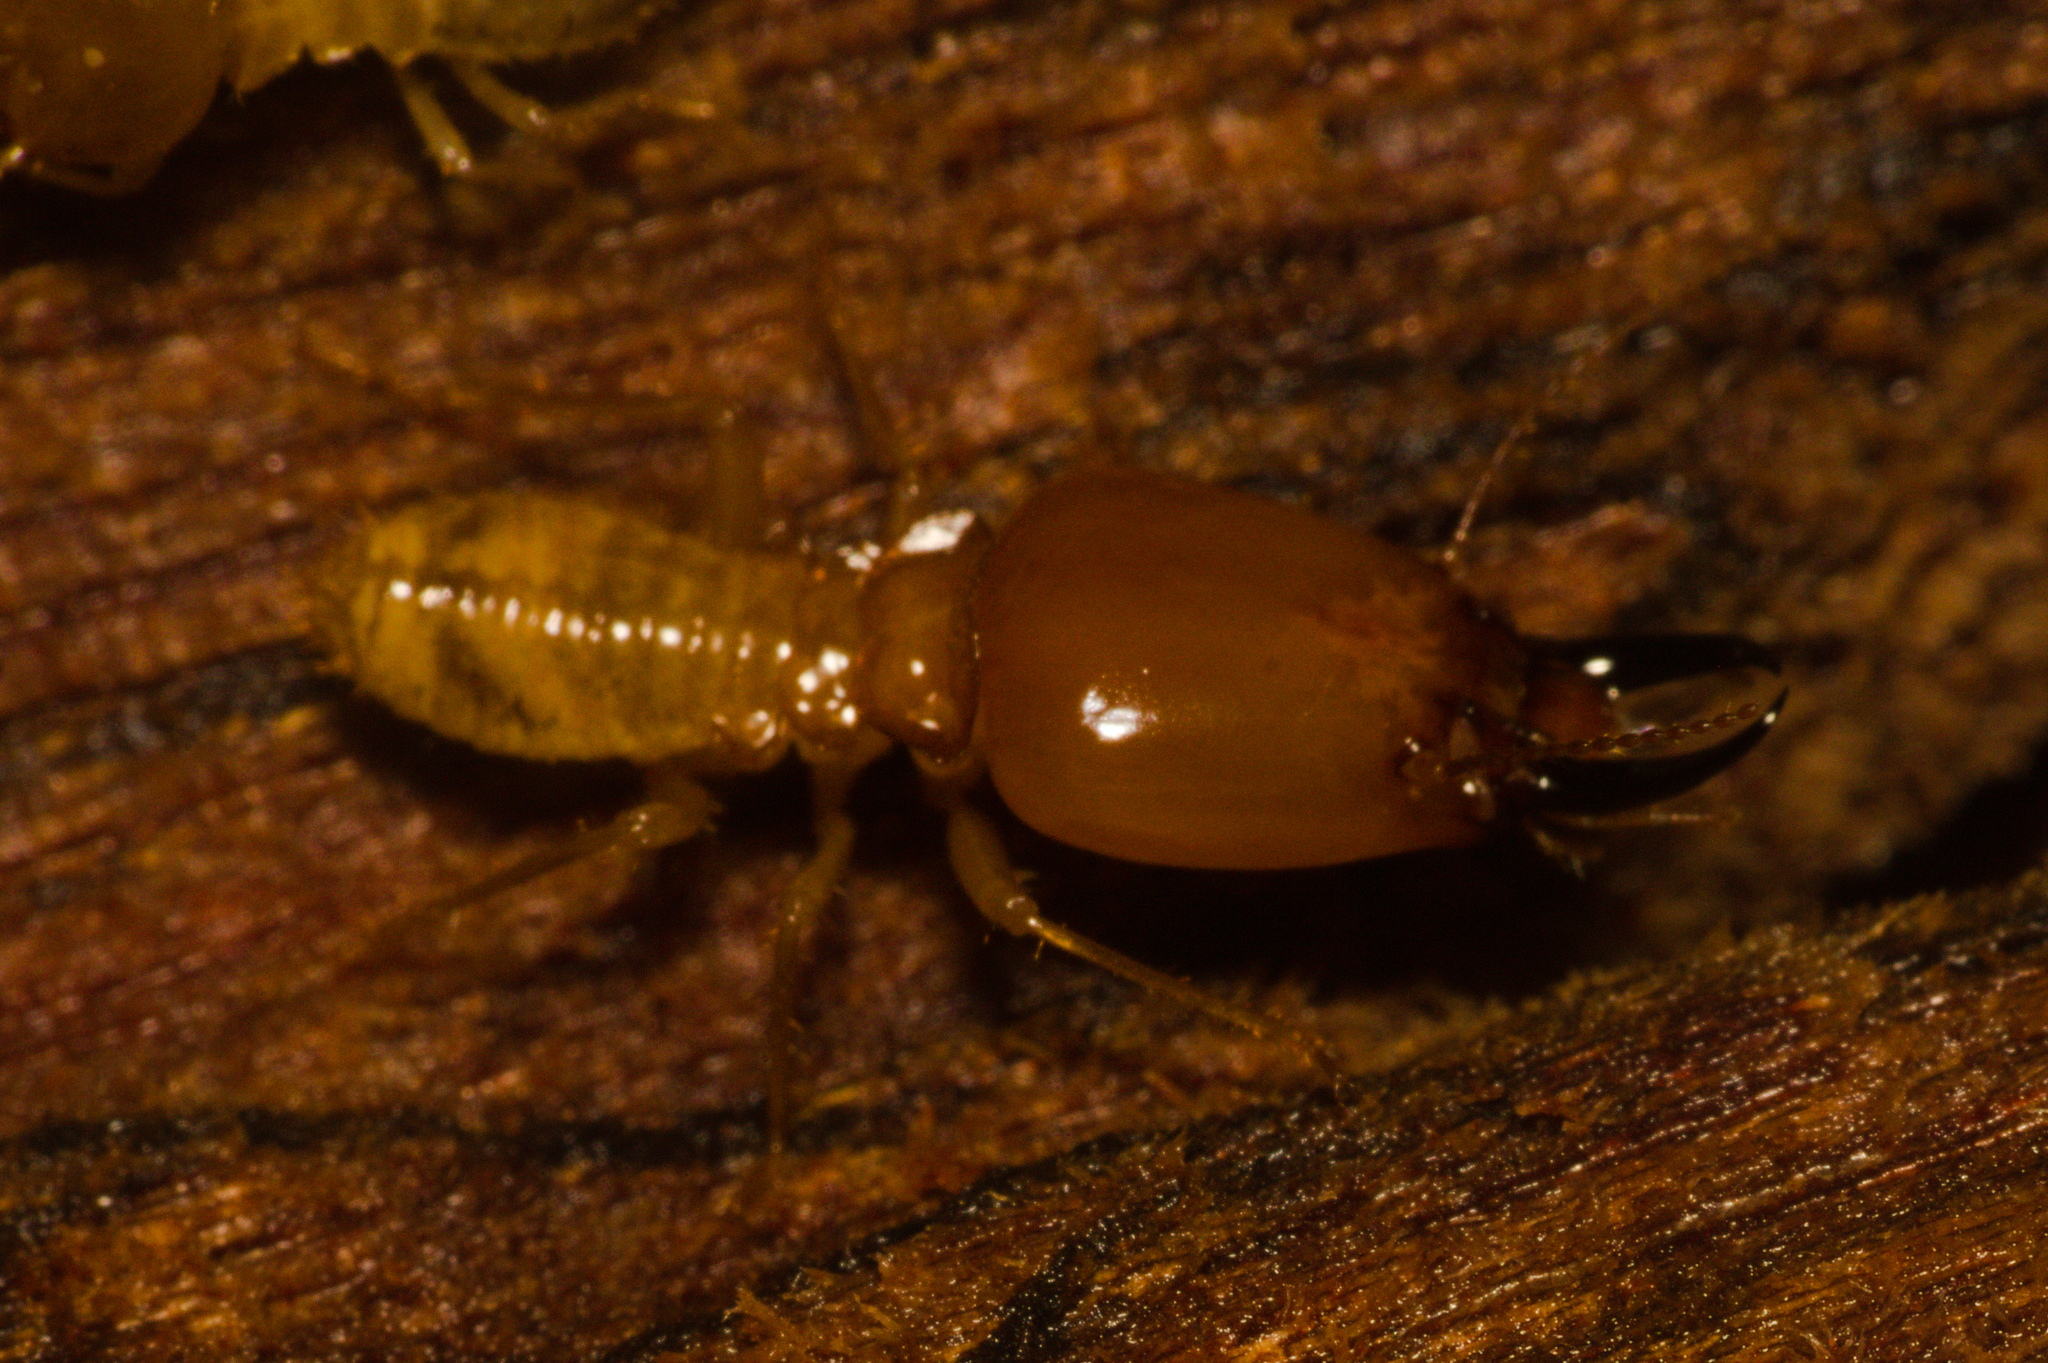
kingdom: Animalia
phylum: Arthropoda
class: Insecta
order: Blattodea
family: Termitidae
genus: Macrotermes
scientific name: Macrotermes malaccensis
